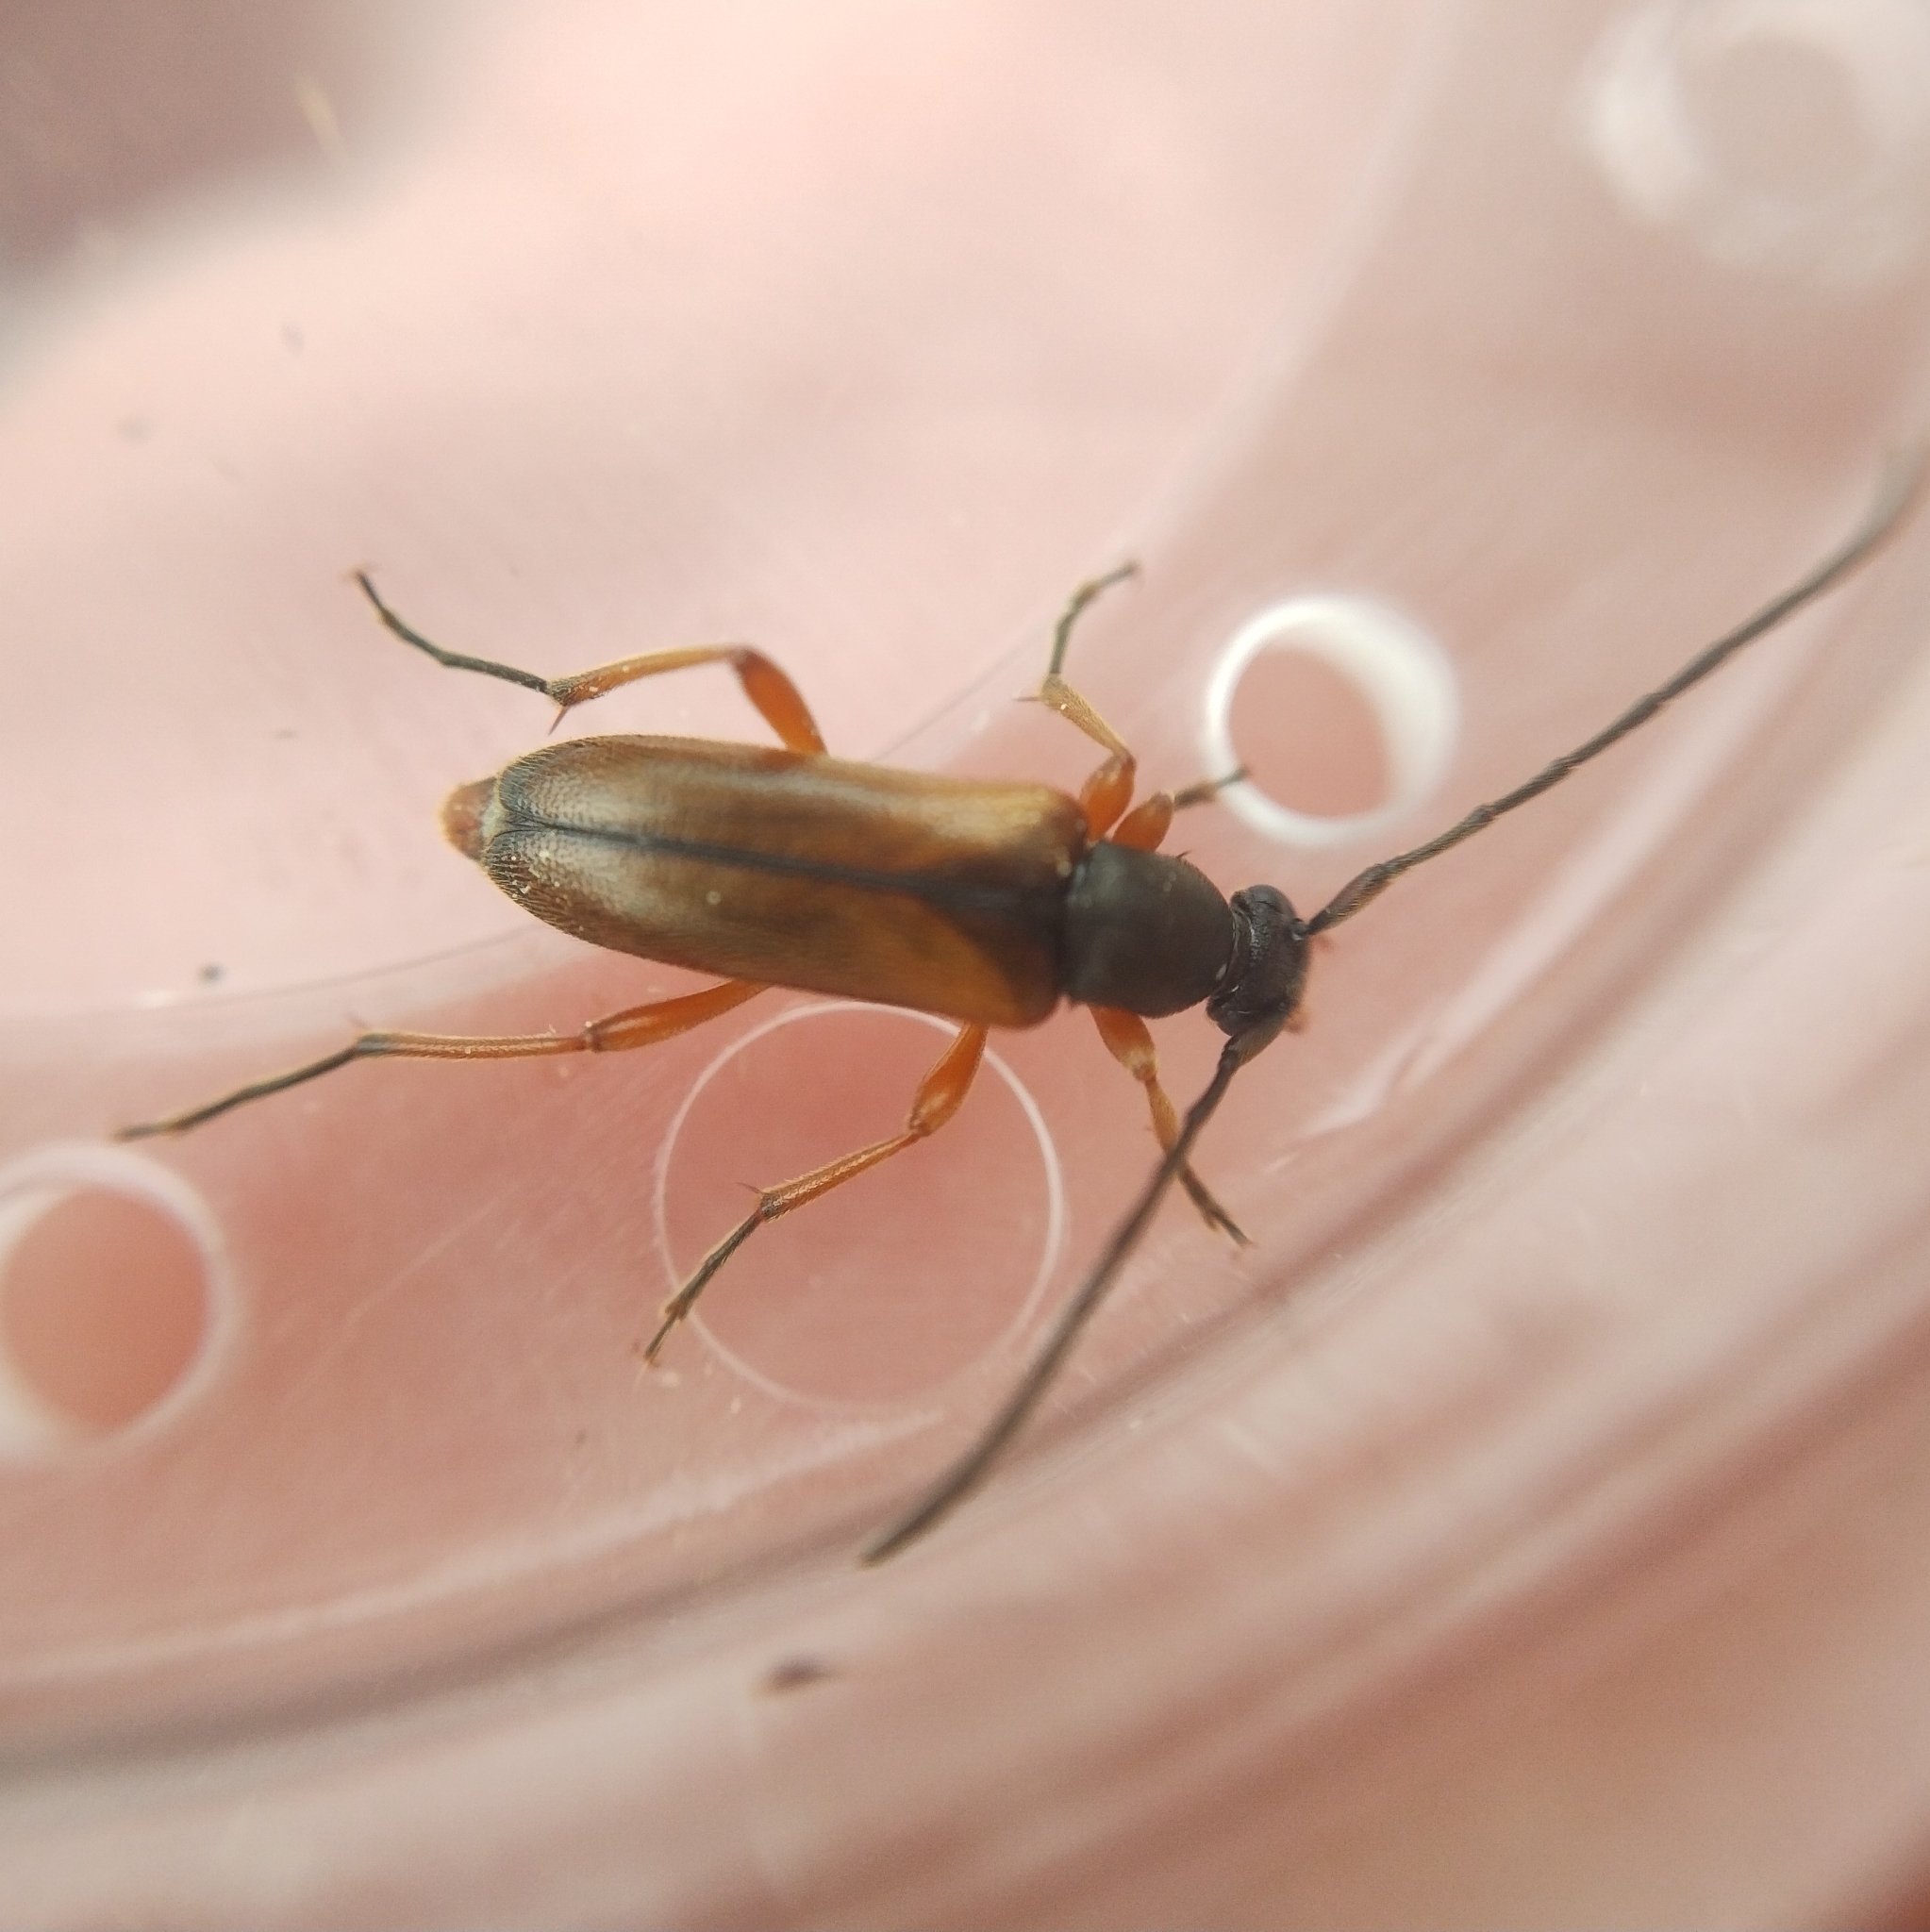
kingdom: Animalia
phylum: Arthropoda
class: Insecta
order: Coleoptera
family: Cerambycidae
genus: Alosterna
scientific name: Alosterna tabacicolor
